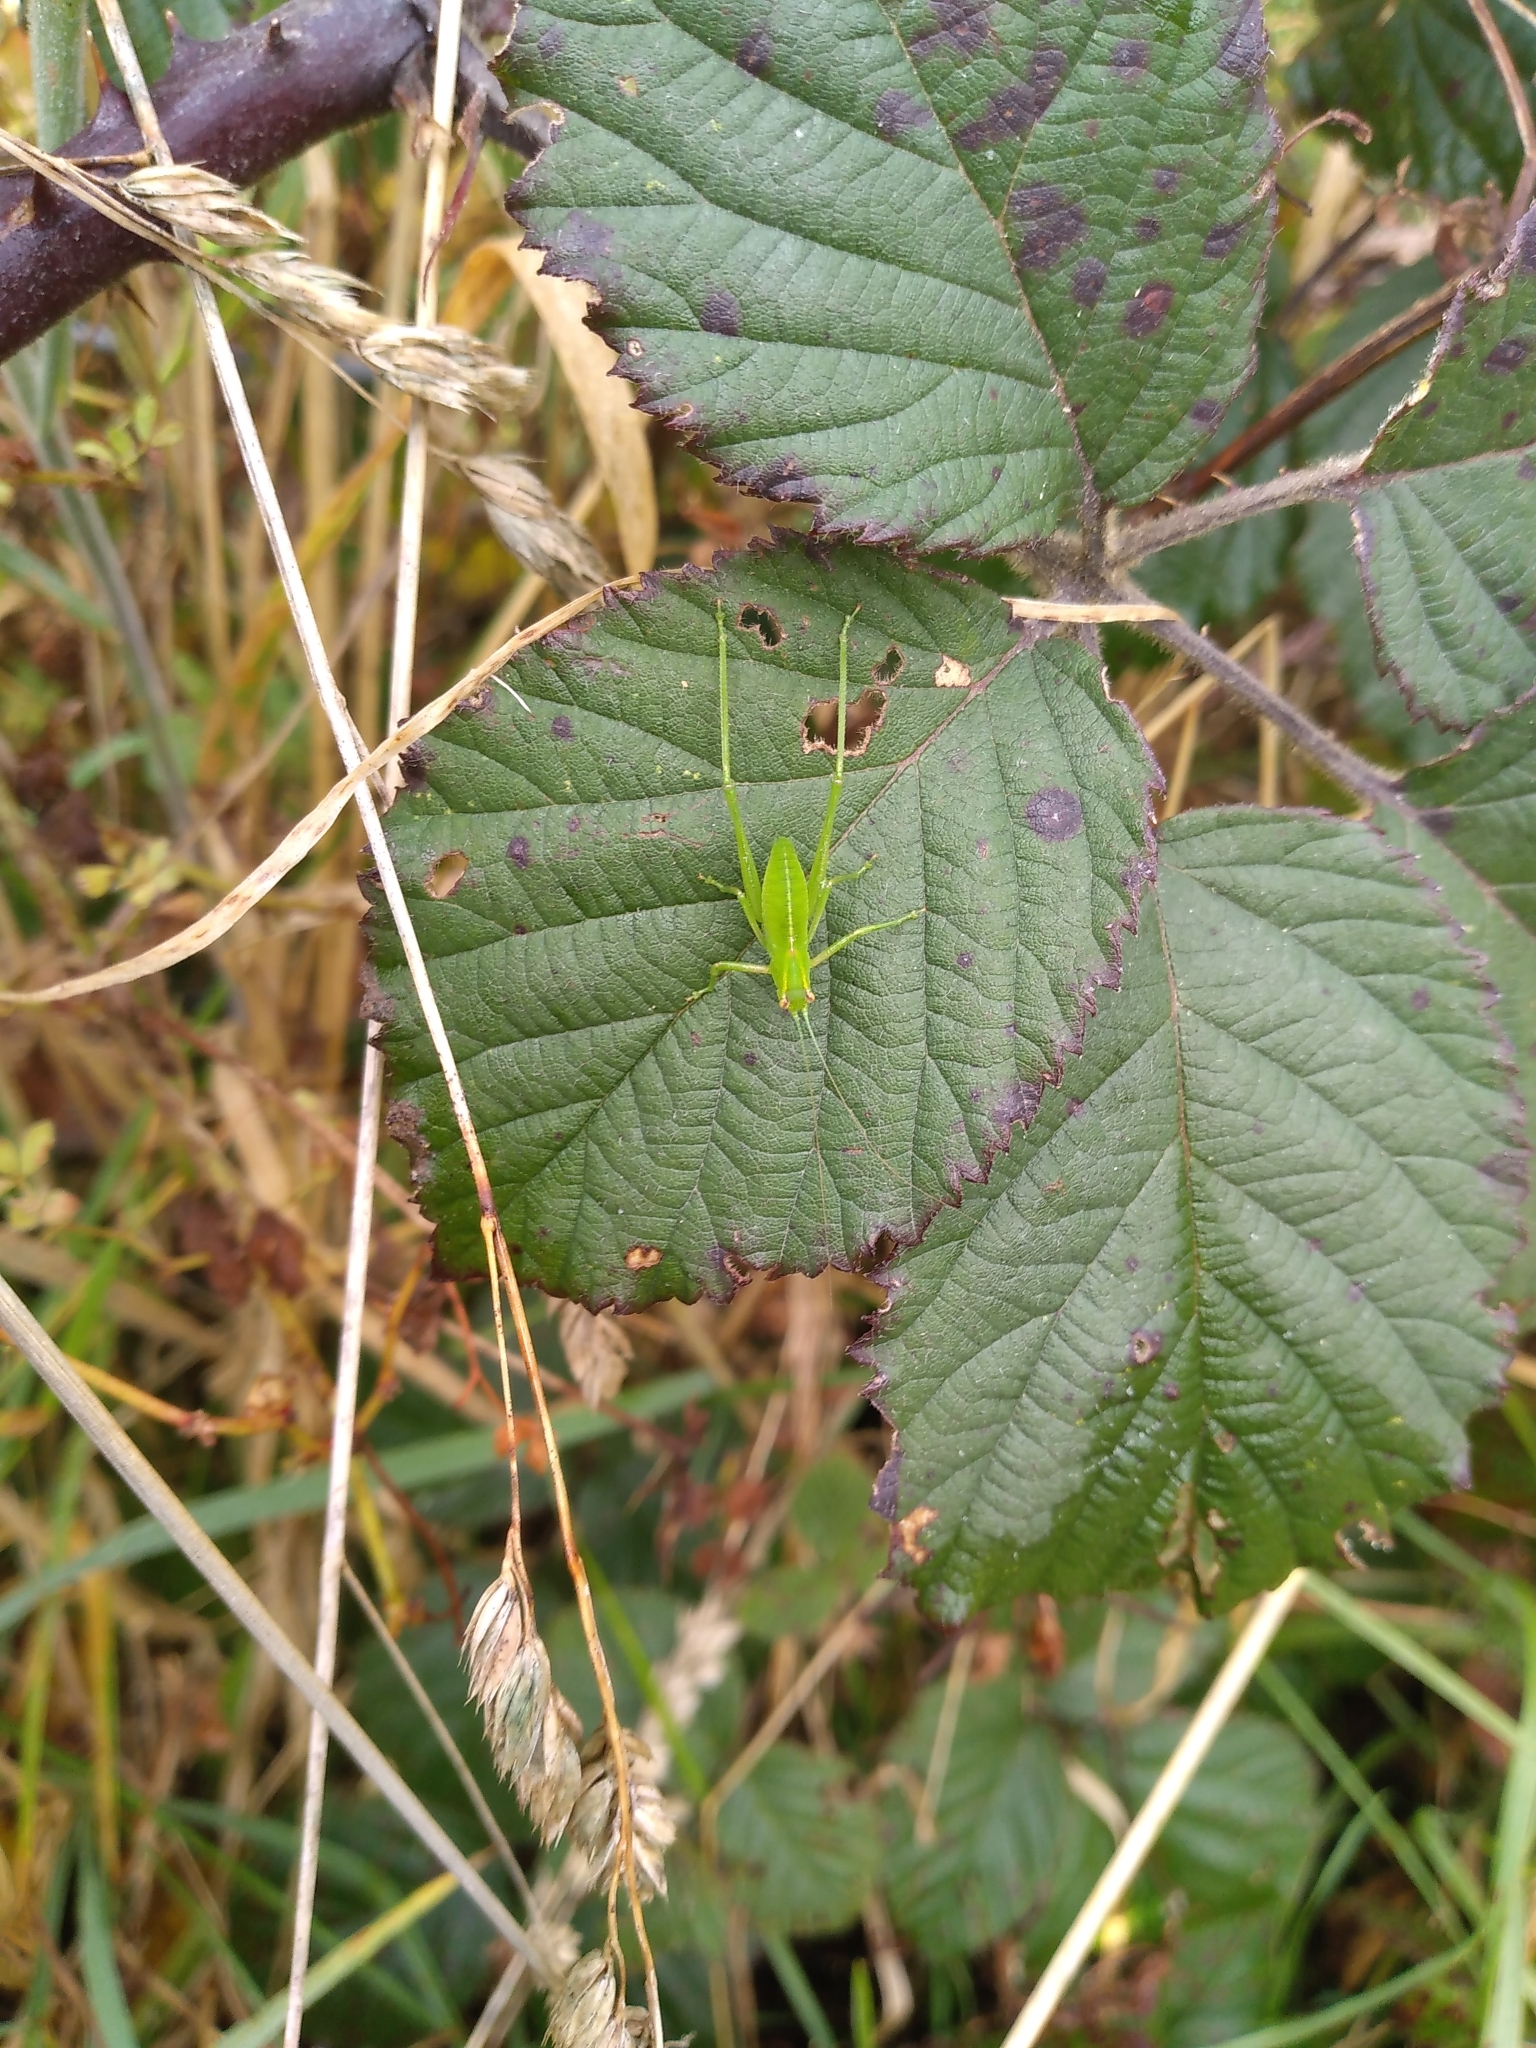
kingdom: Animalia
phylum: Arthropoda
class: Insecta
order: Orthoptera
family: Tettigoniidae
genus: Caedicia
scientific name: Caedicia simplex
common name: Common garden katydid
